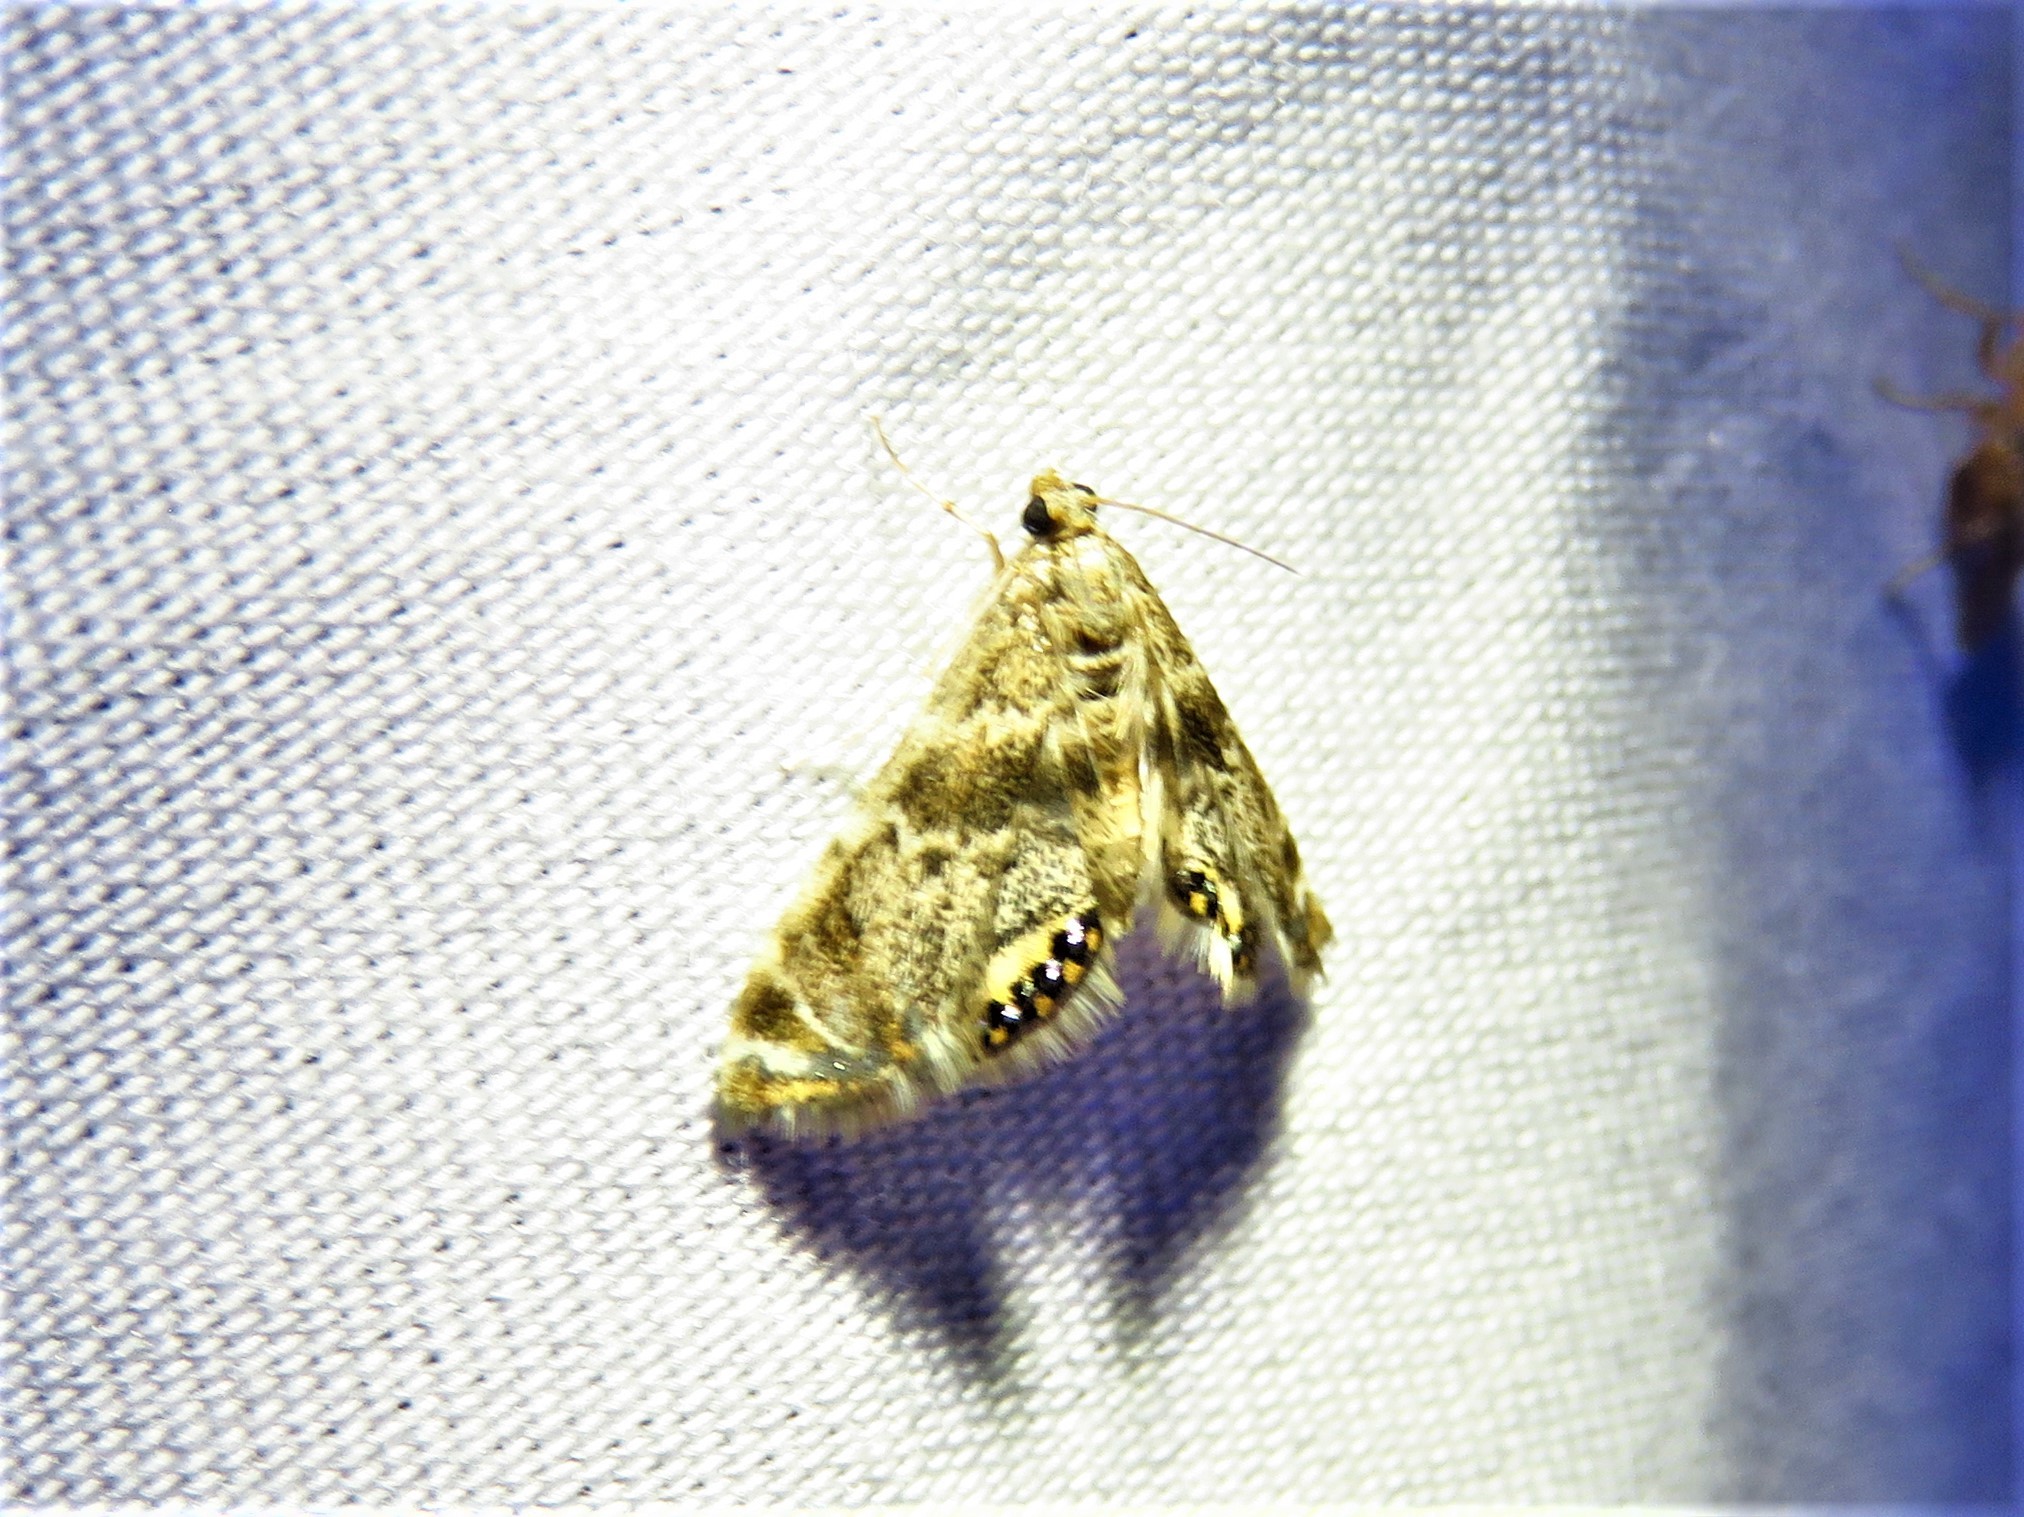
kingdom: Animalia
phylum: Arthropoda
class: Insecta
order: Lepidoptera
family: Crambidae
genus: Petrophila
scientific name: Petrophila fulicalis
